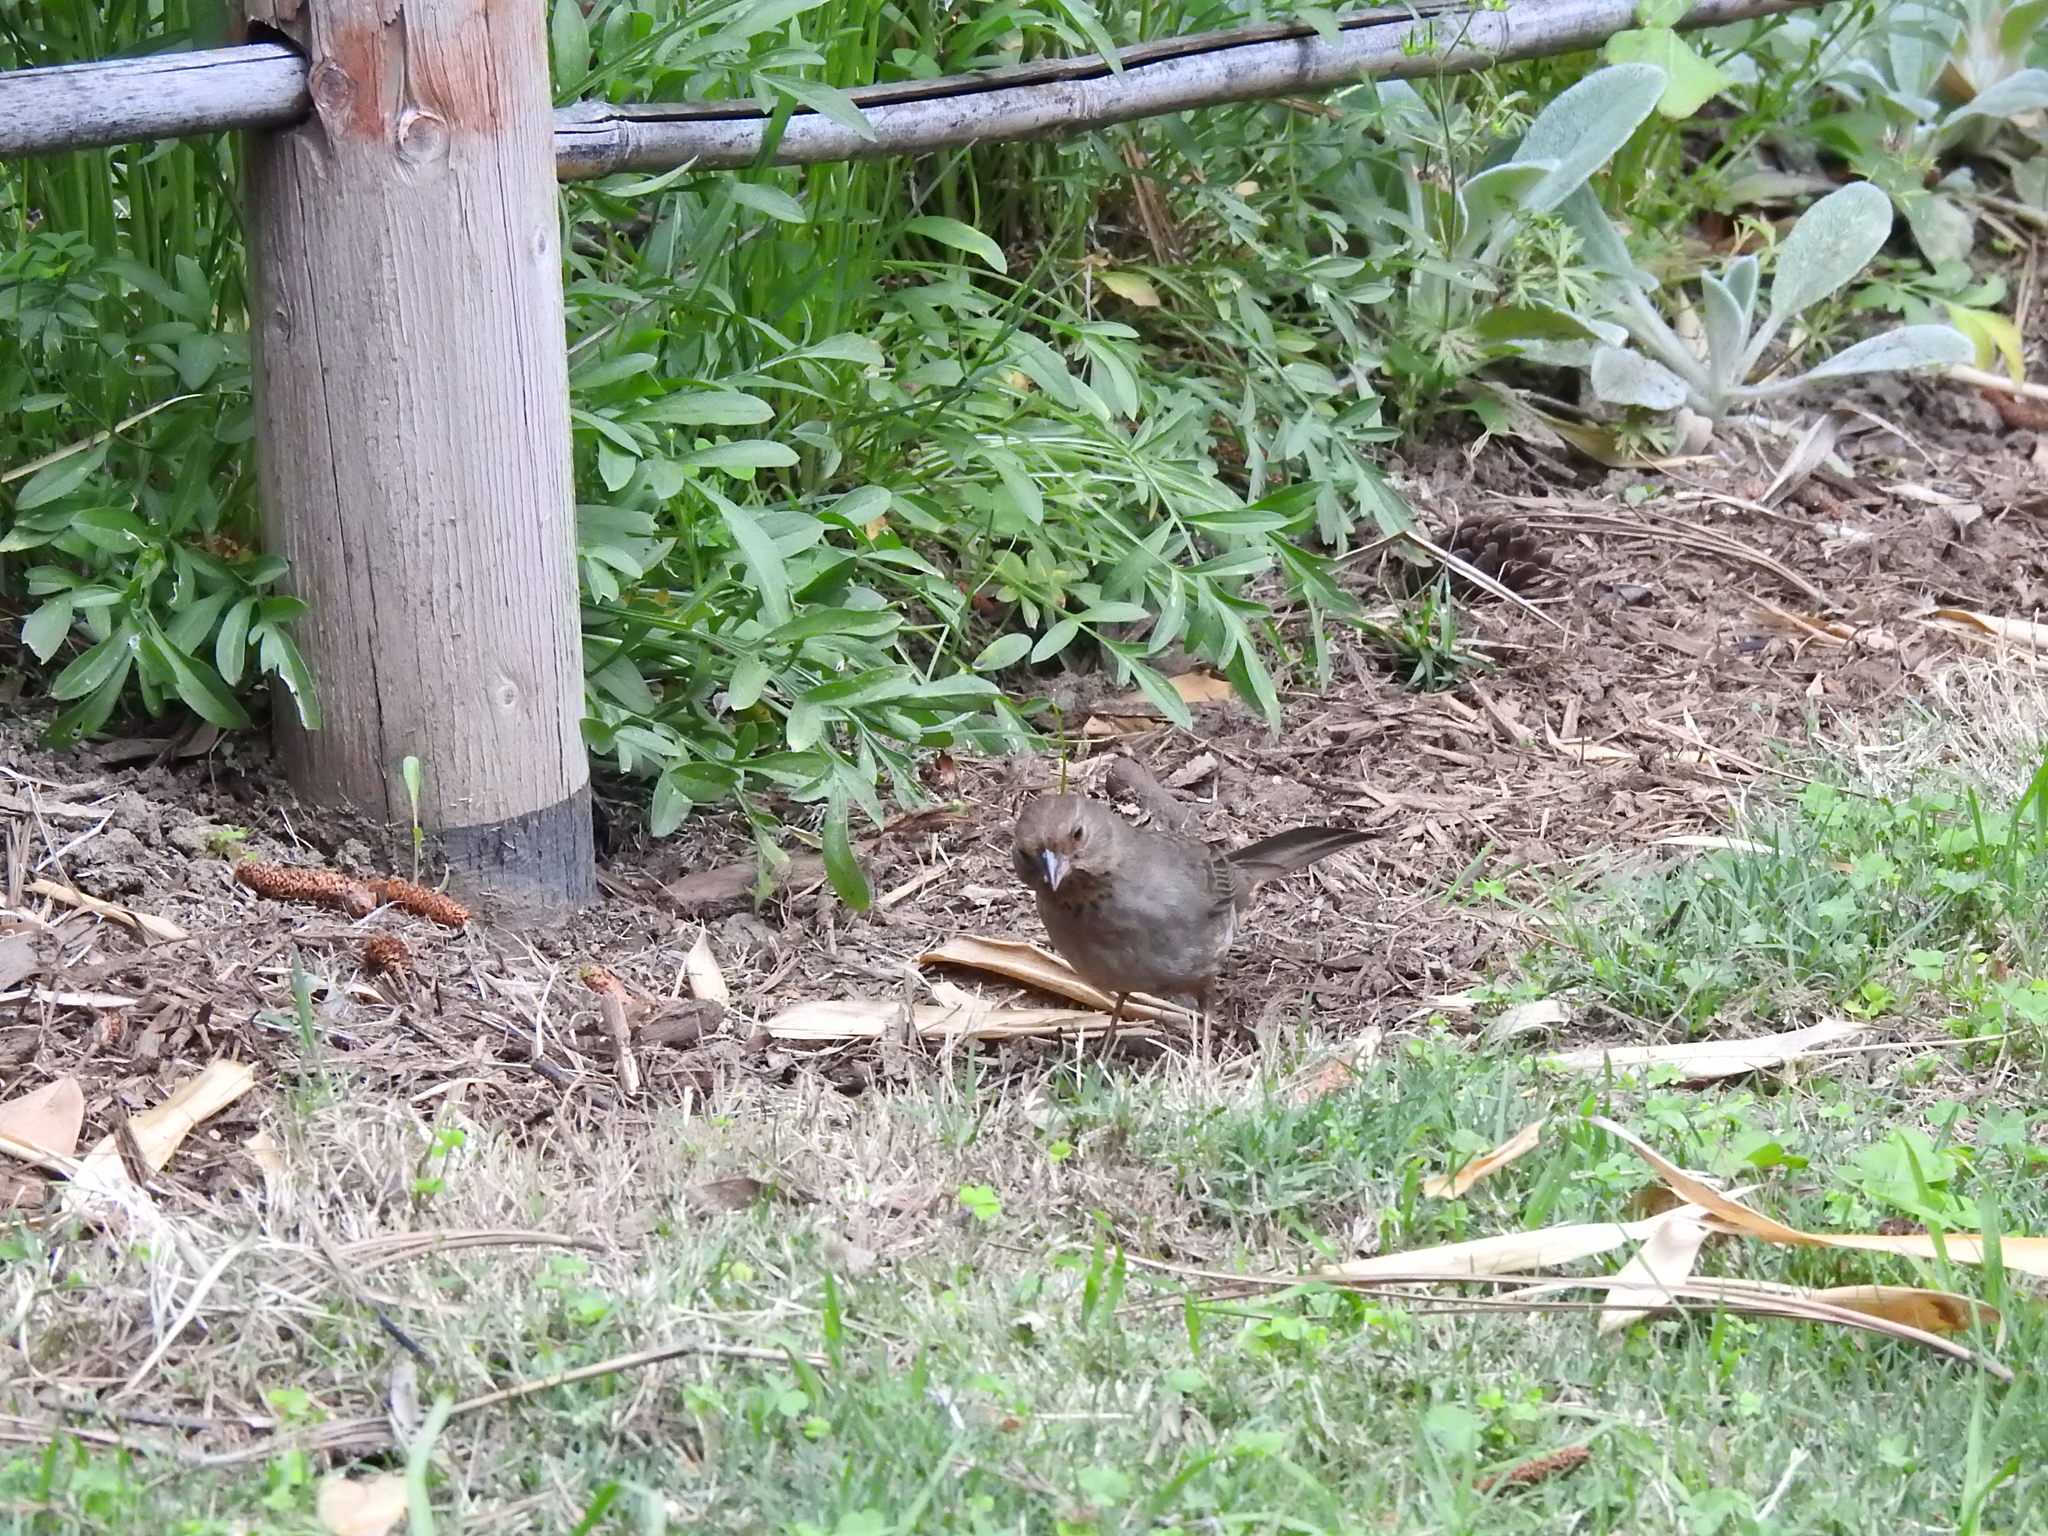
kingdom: Animalia
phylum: Chordata
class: Aves
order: Passeriformes
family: Passerellidae
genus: Melozone
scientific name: Melozone crissalis
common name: California towhee
